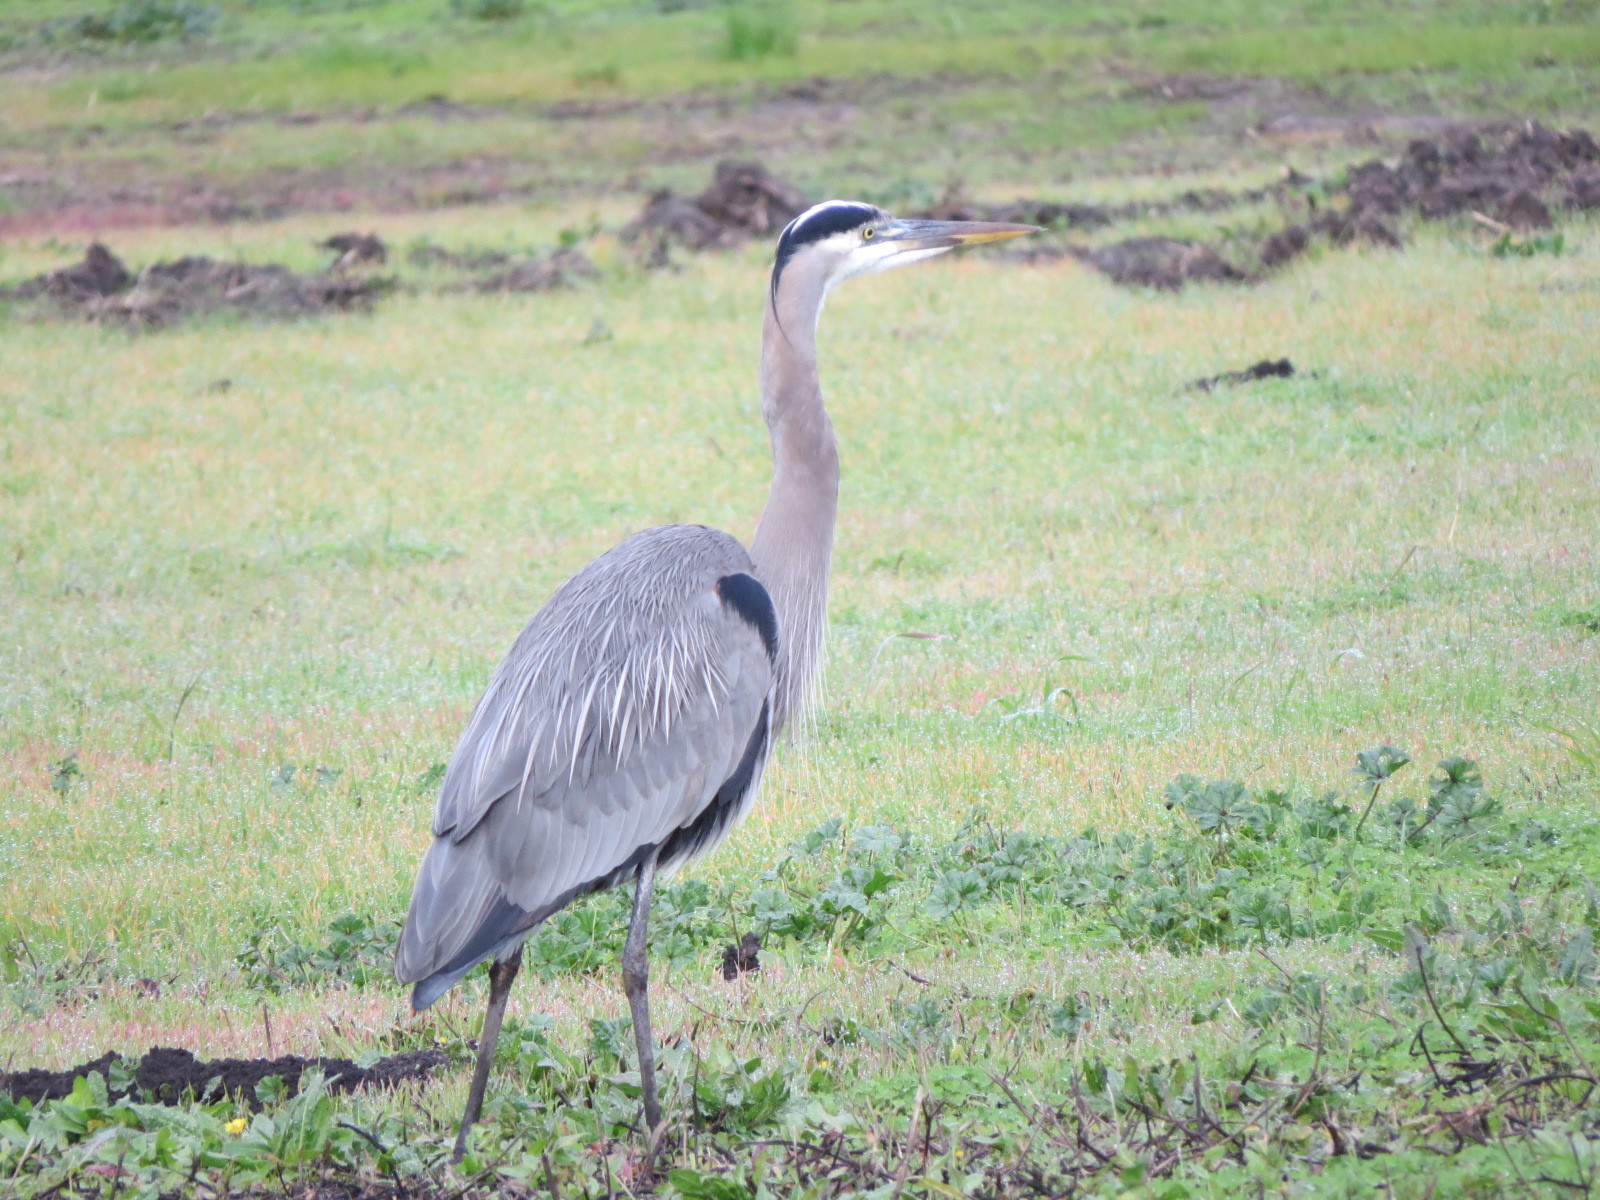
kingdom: Animalia
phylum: Chordata
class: Aves
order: Pelecaniformes
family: Ardeidae
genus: Ardea
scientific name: Ardea herodias
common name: Great blue heron
